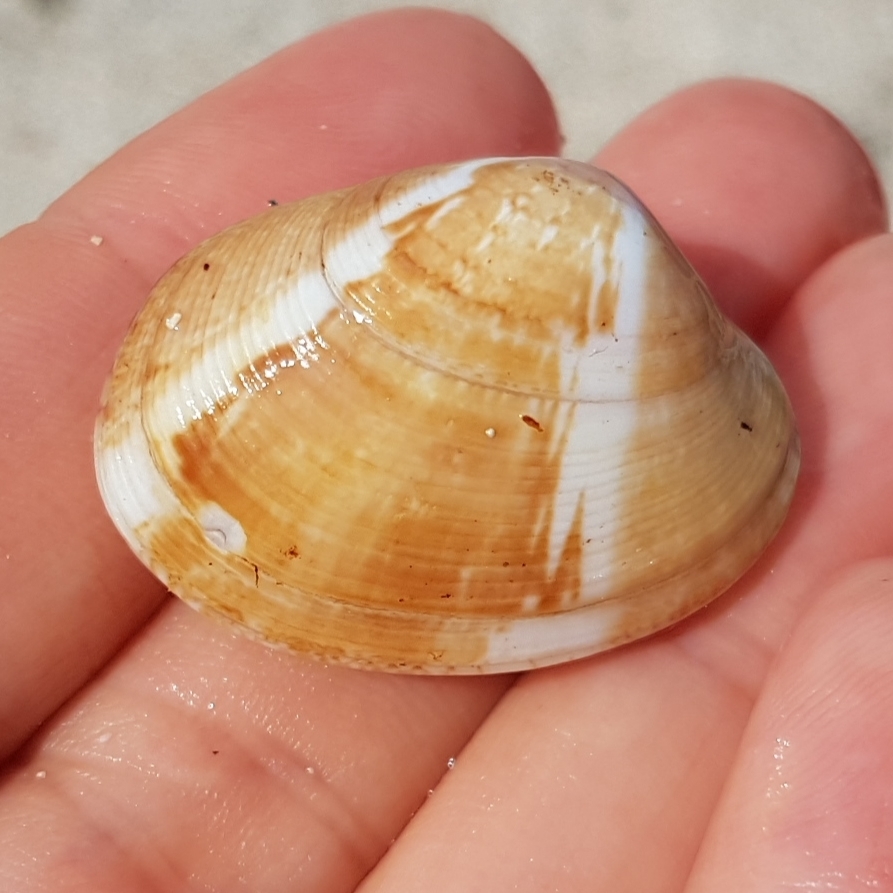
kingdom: Animalia
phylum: Mollusca
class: Bivalvia
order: Venerida
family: Veneridae
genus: Polititapes
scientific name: Polititapes rhomboides
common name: Banded carpet shell
